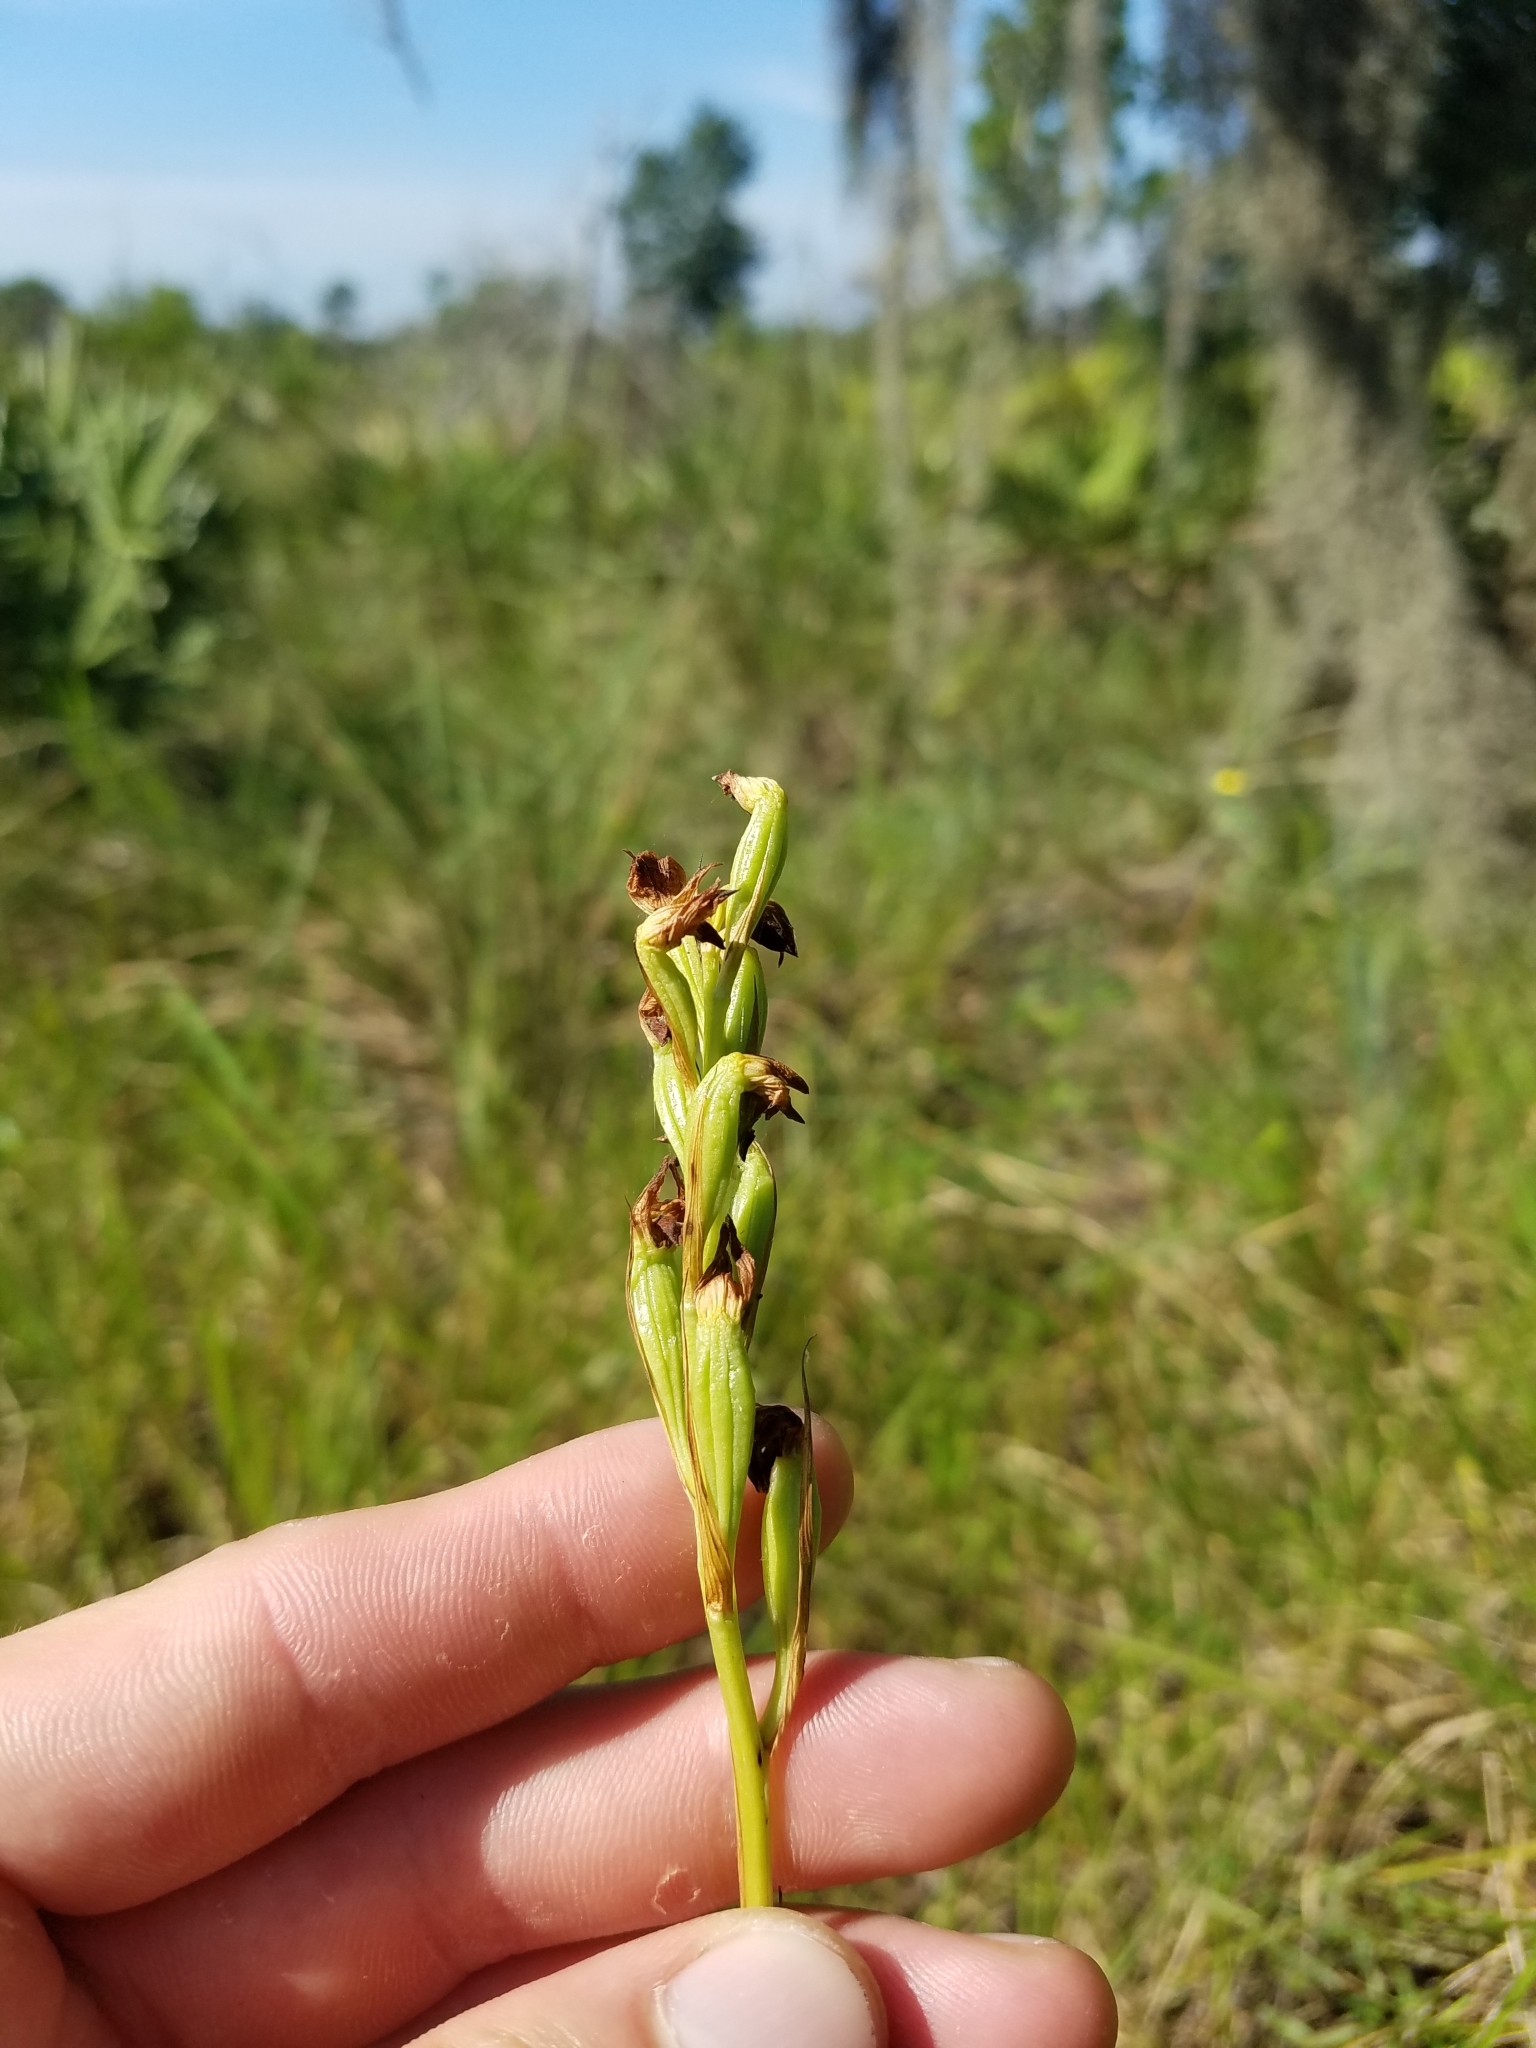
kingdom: Plantae
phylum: Tracheophyta
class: Liliopsida
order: Asparagales
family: Orchidaceae
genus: Eulophia
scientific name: Eulophia ecristata
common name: Giant orchid
